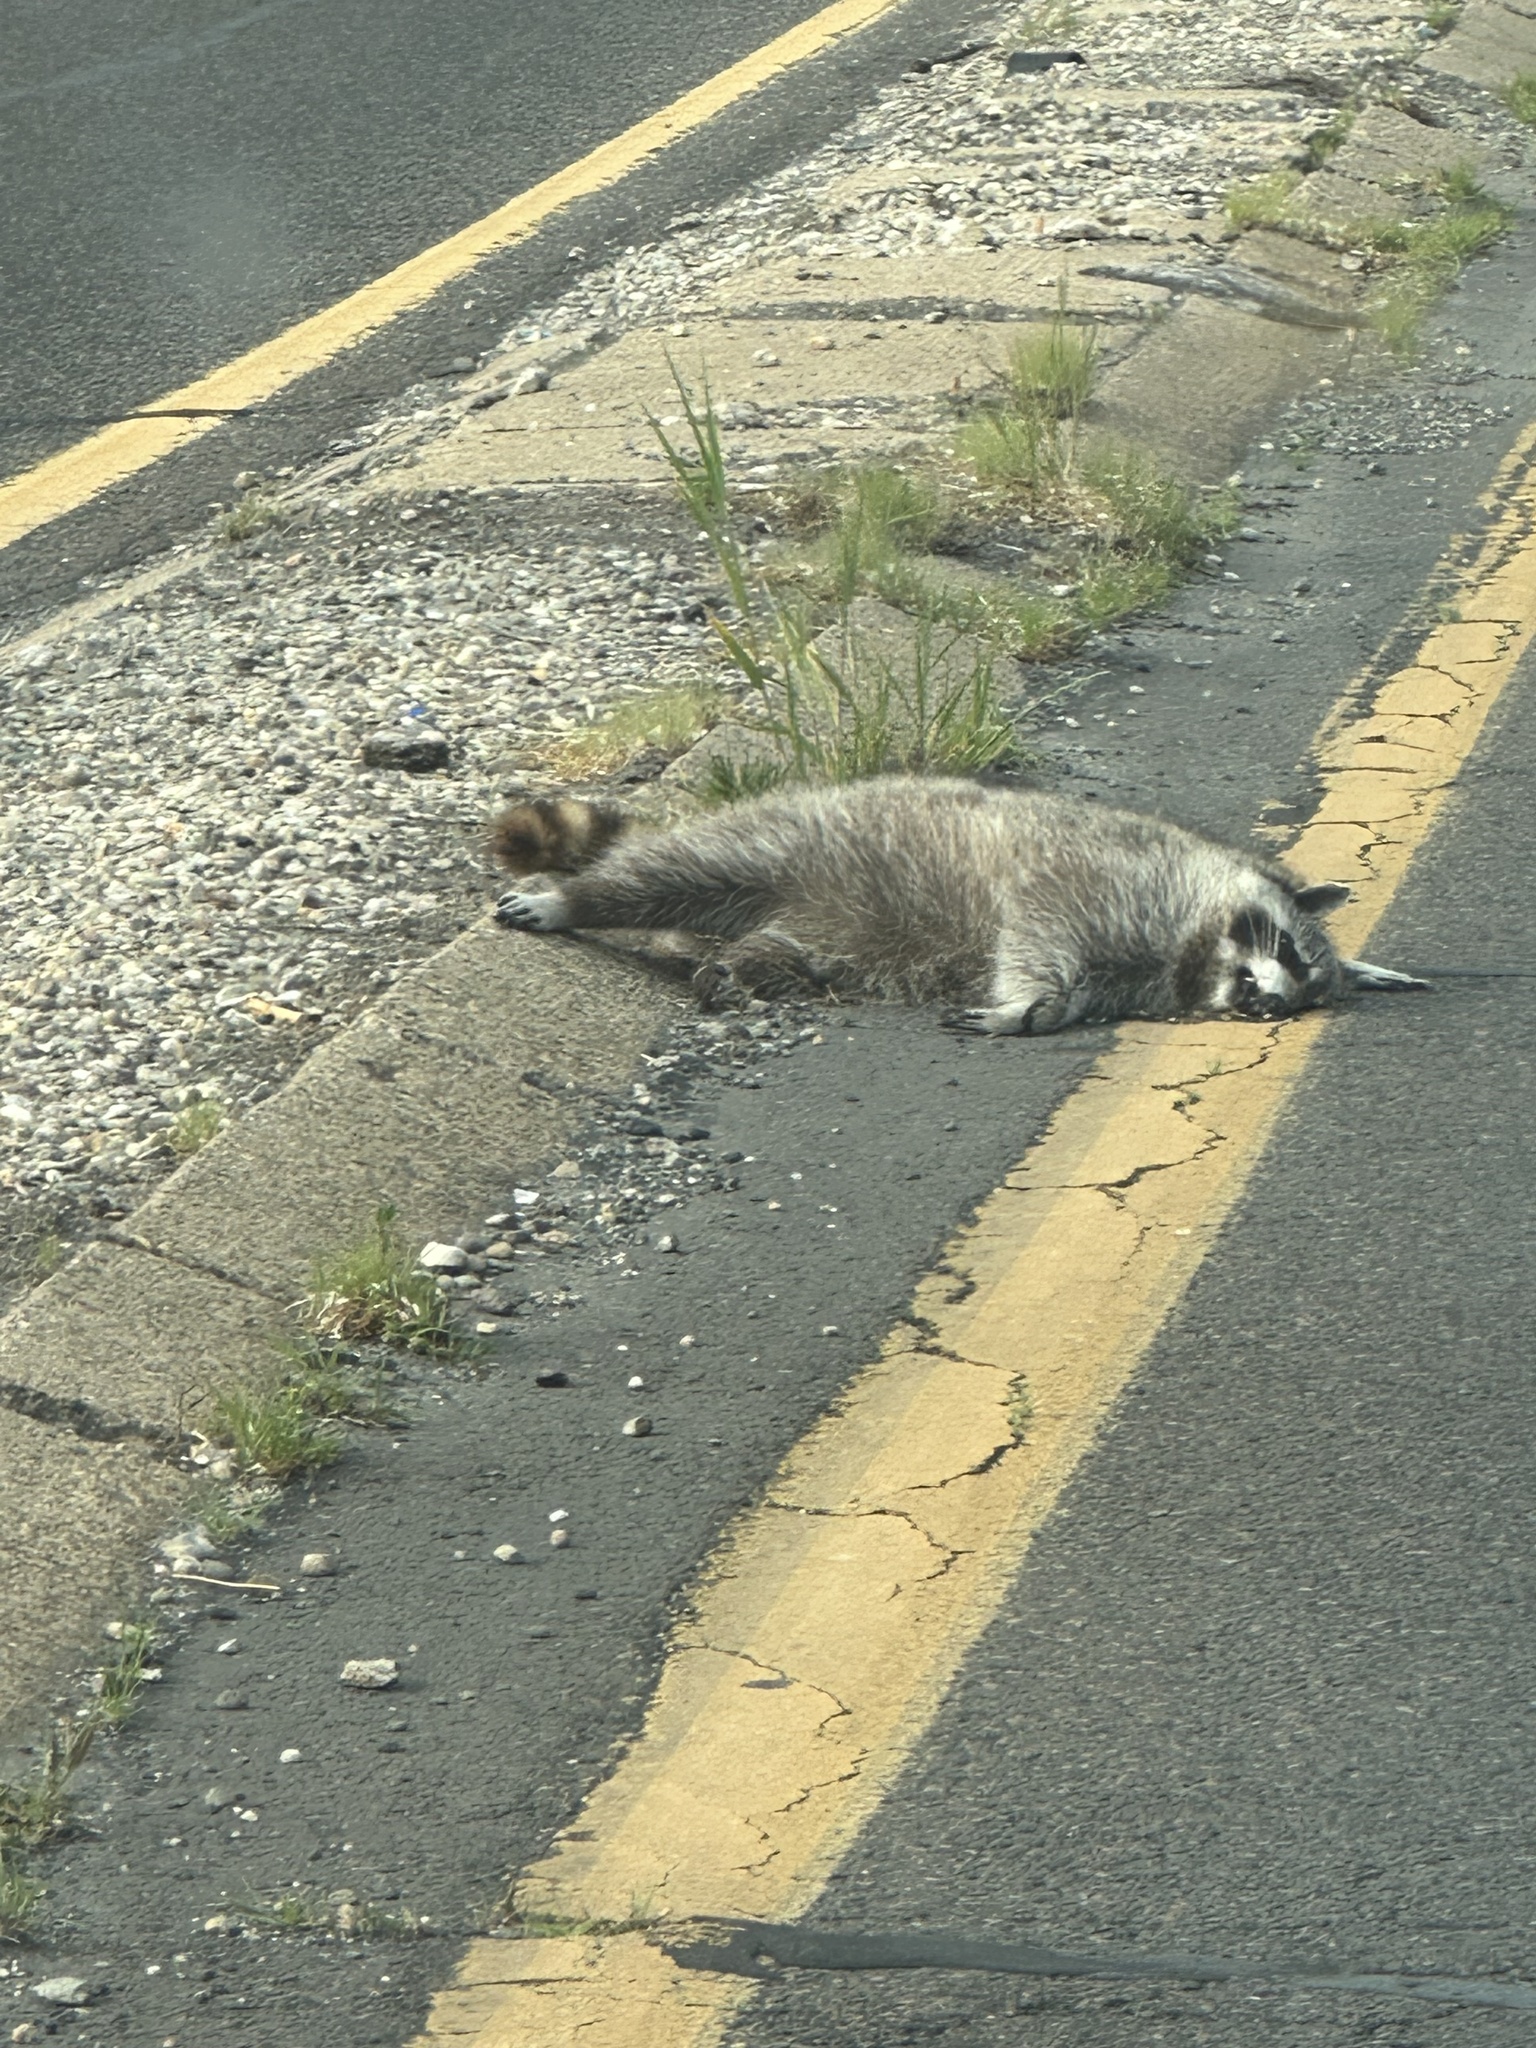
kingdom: Animalia
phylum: Chordata
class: Mammalia
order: Carnivora
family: Procyonidae
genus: Procyon
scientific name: Procyon lotor
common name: Raccoon
